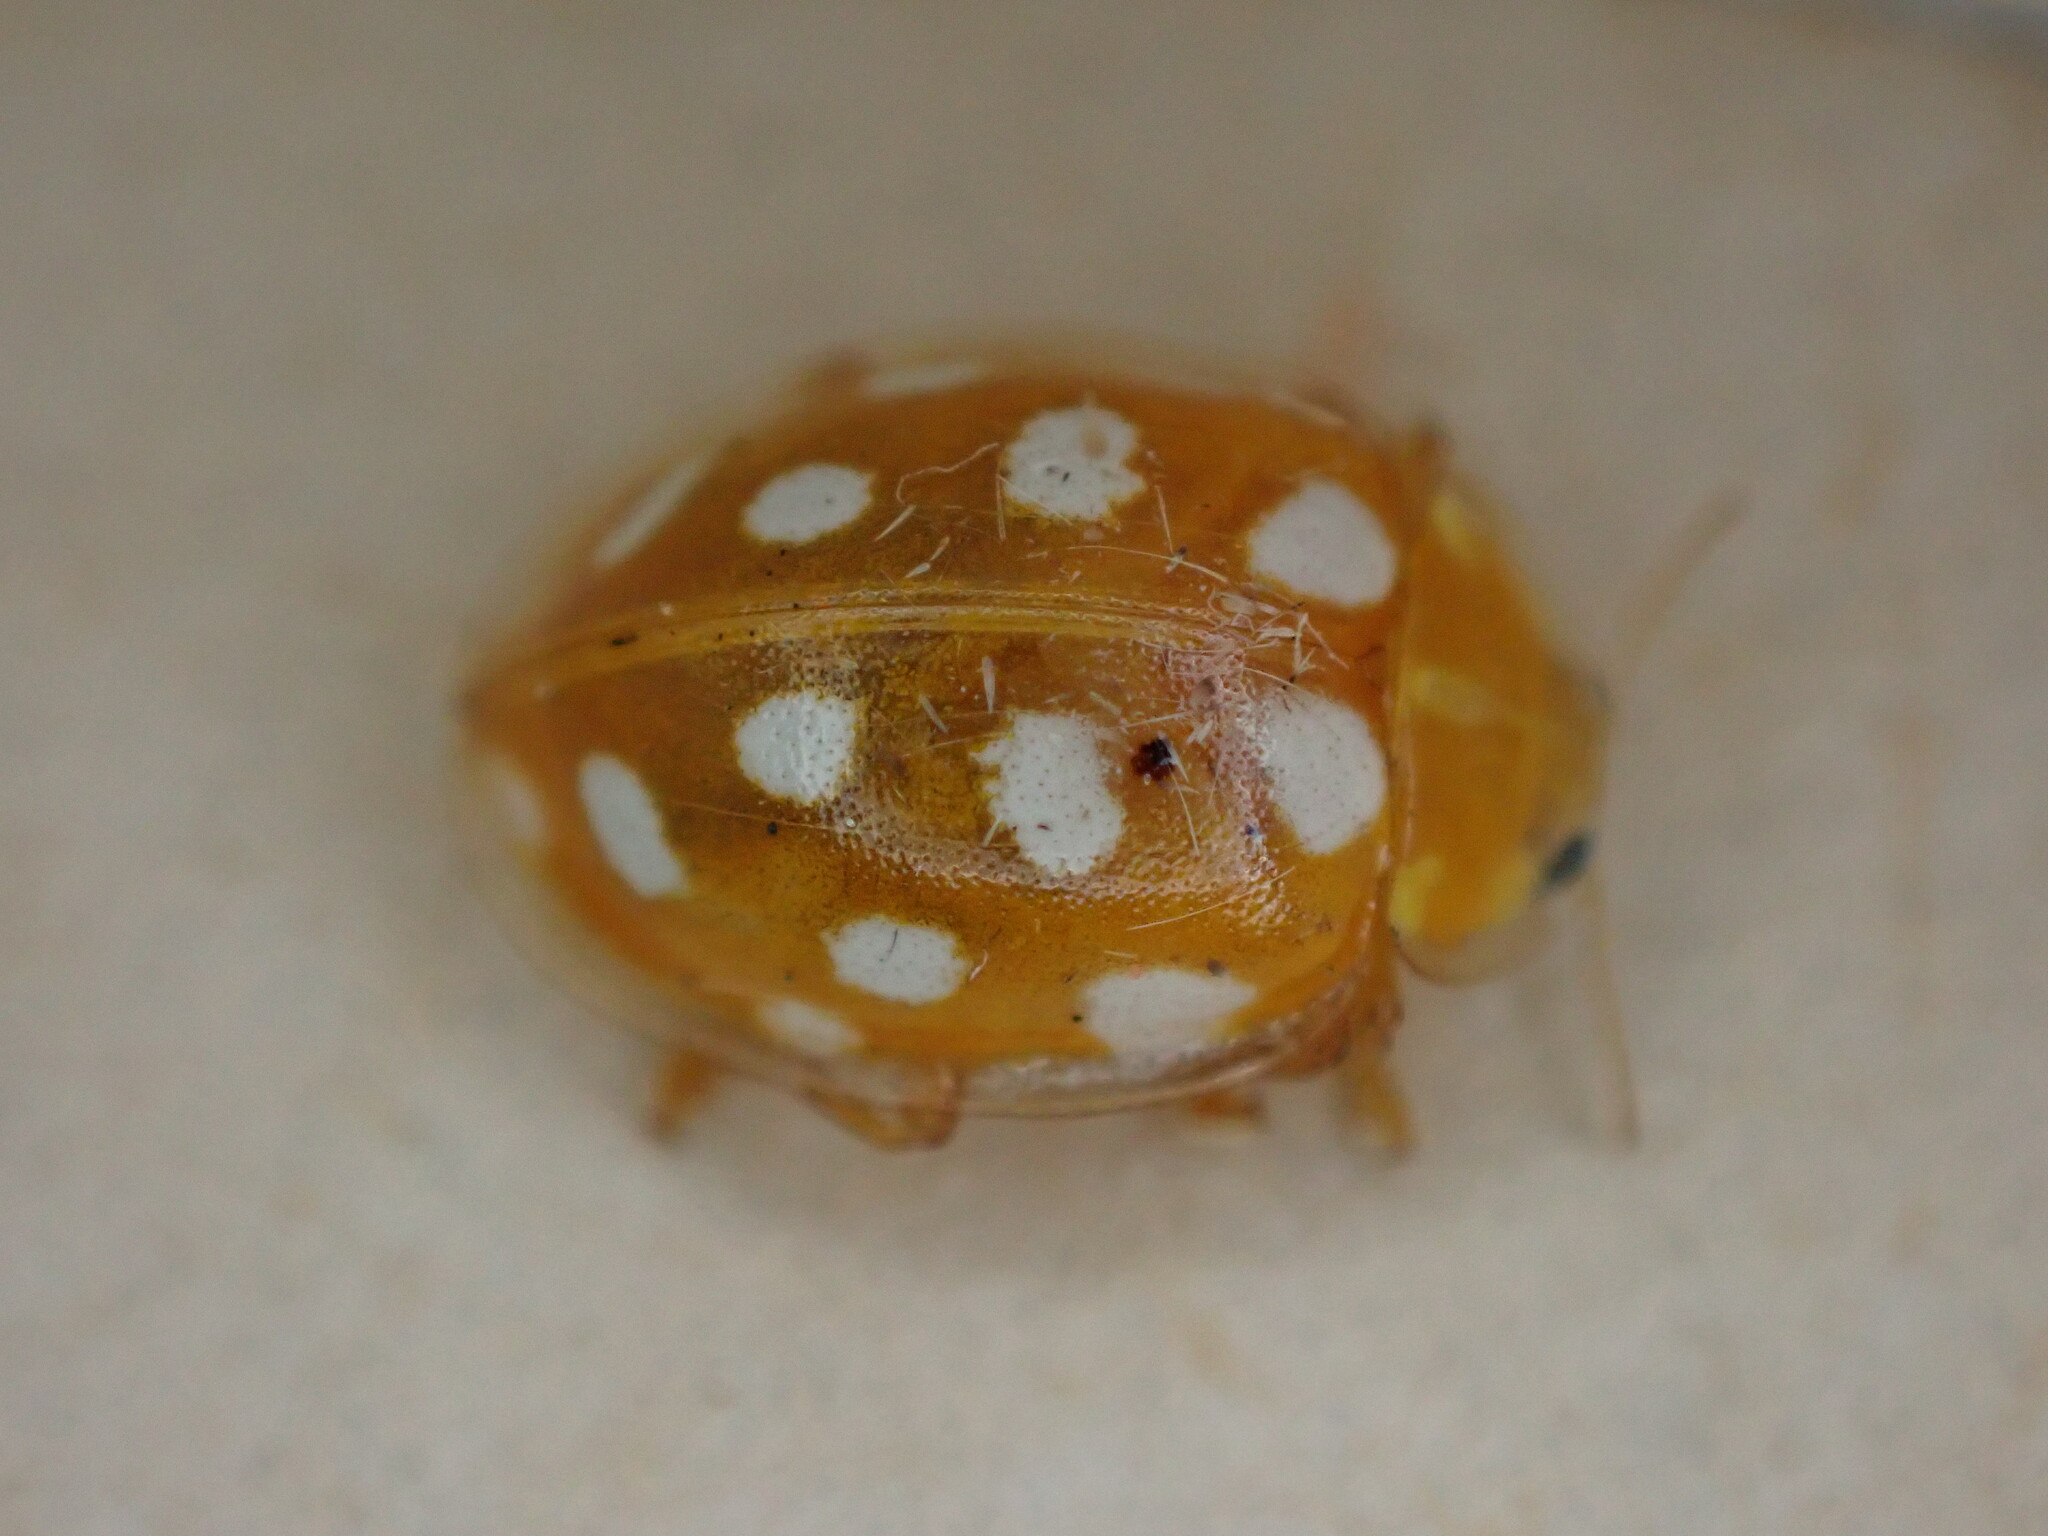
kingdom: Animalia
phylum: Arthropoda
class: Insecta
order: Coleoptera
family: Coccinellidae
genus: Halyzia
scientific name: Halyzia sedecimguttata
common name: Orange ladybird
